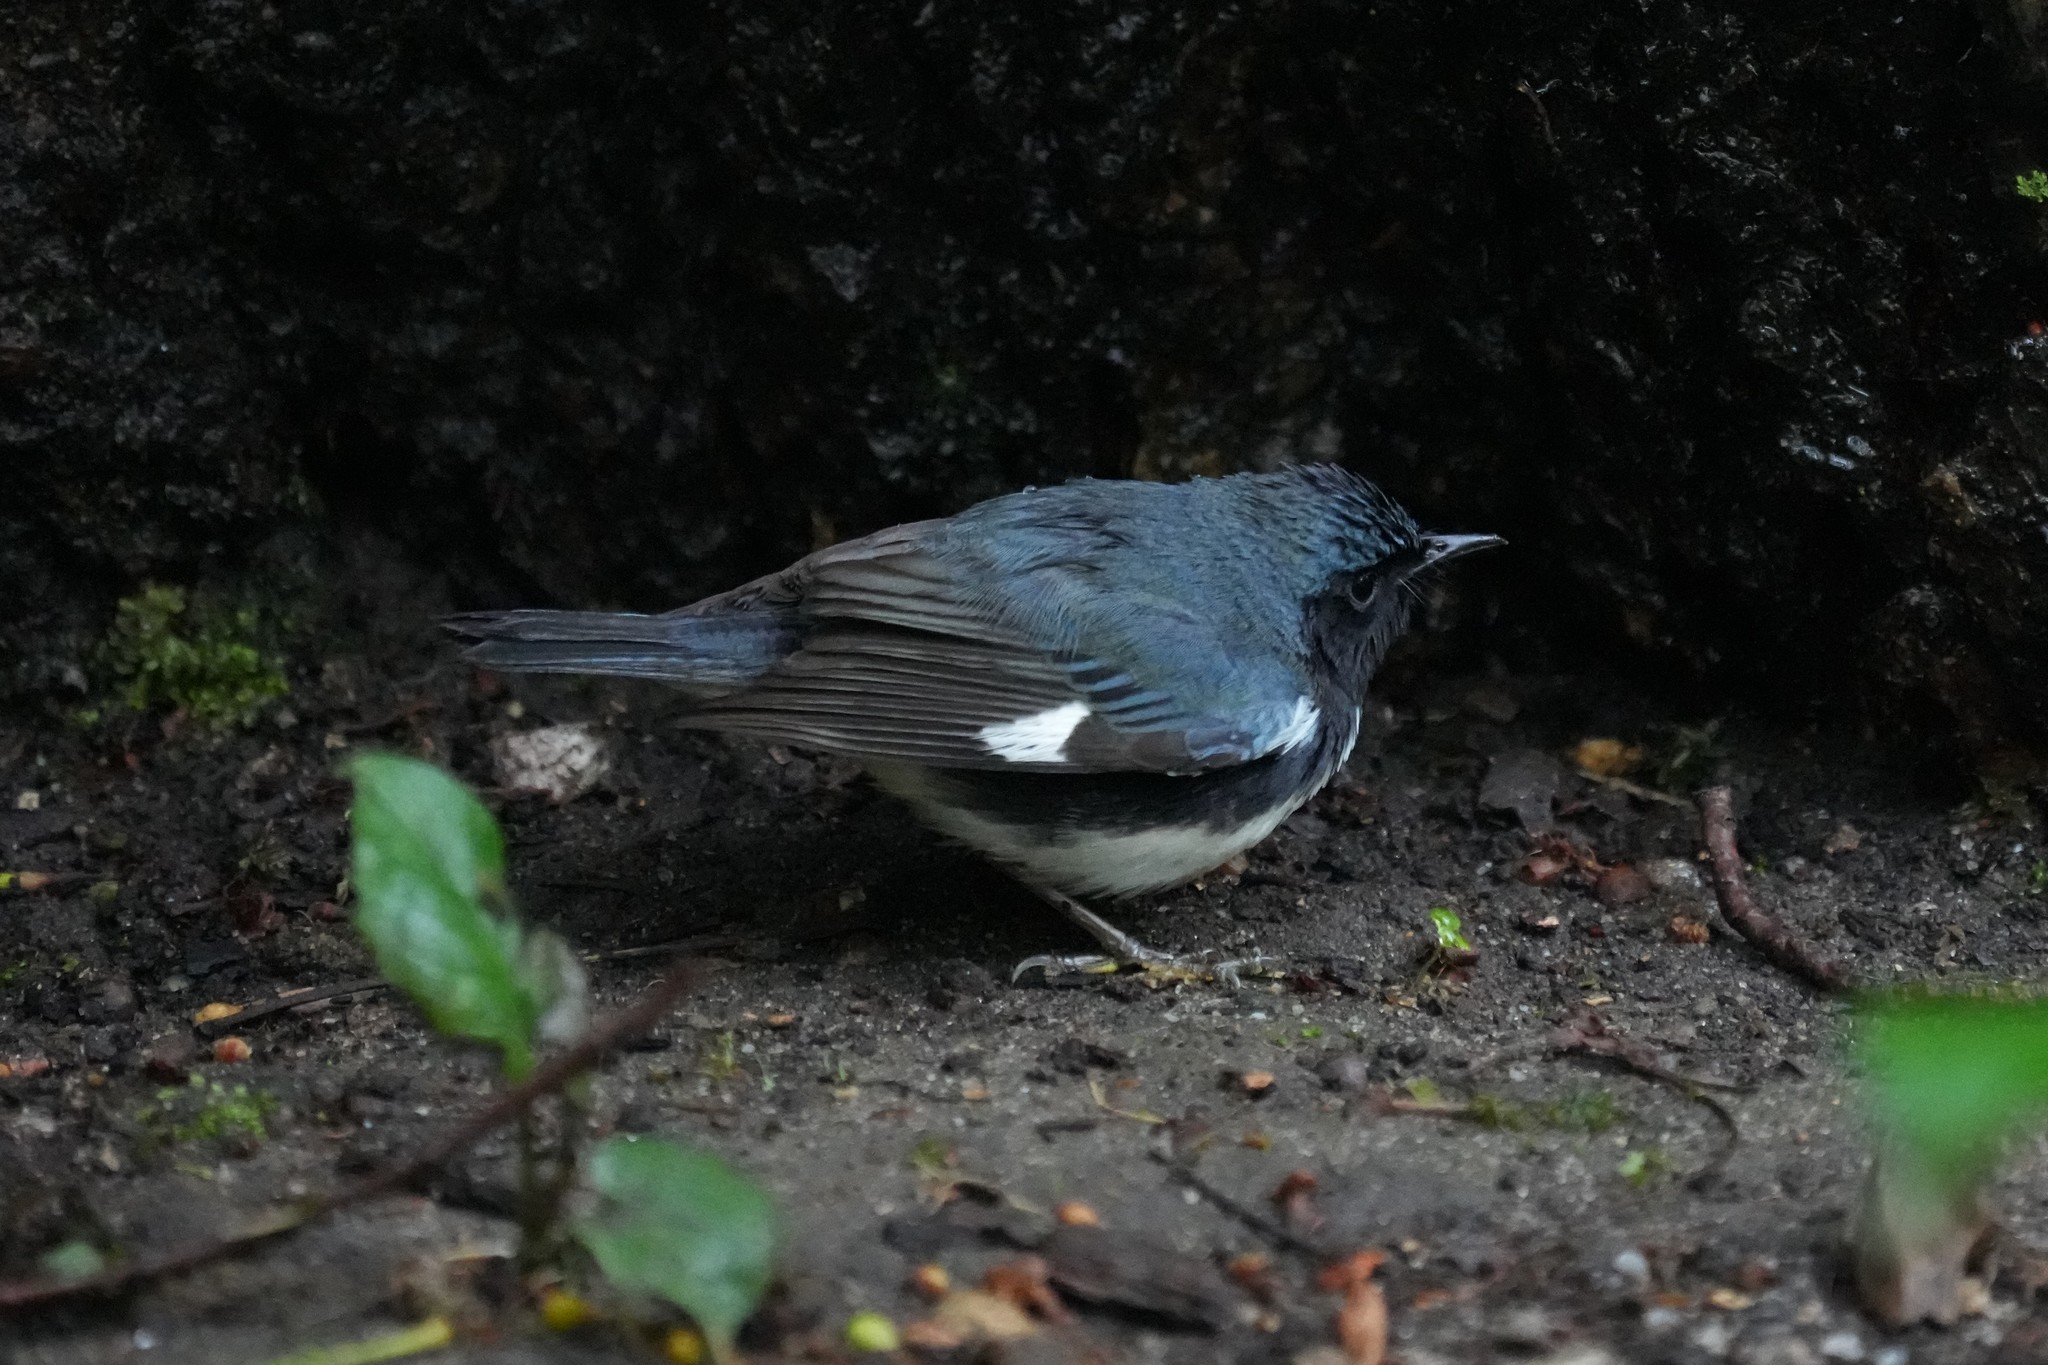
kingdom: Animalia
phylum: Chordata
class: Aves
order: Passeriformes
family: Parulidae
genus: Setophaga
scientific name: Setophaga caerulescens
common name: Black-throated blue warbler
